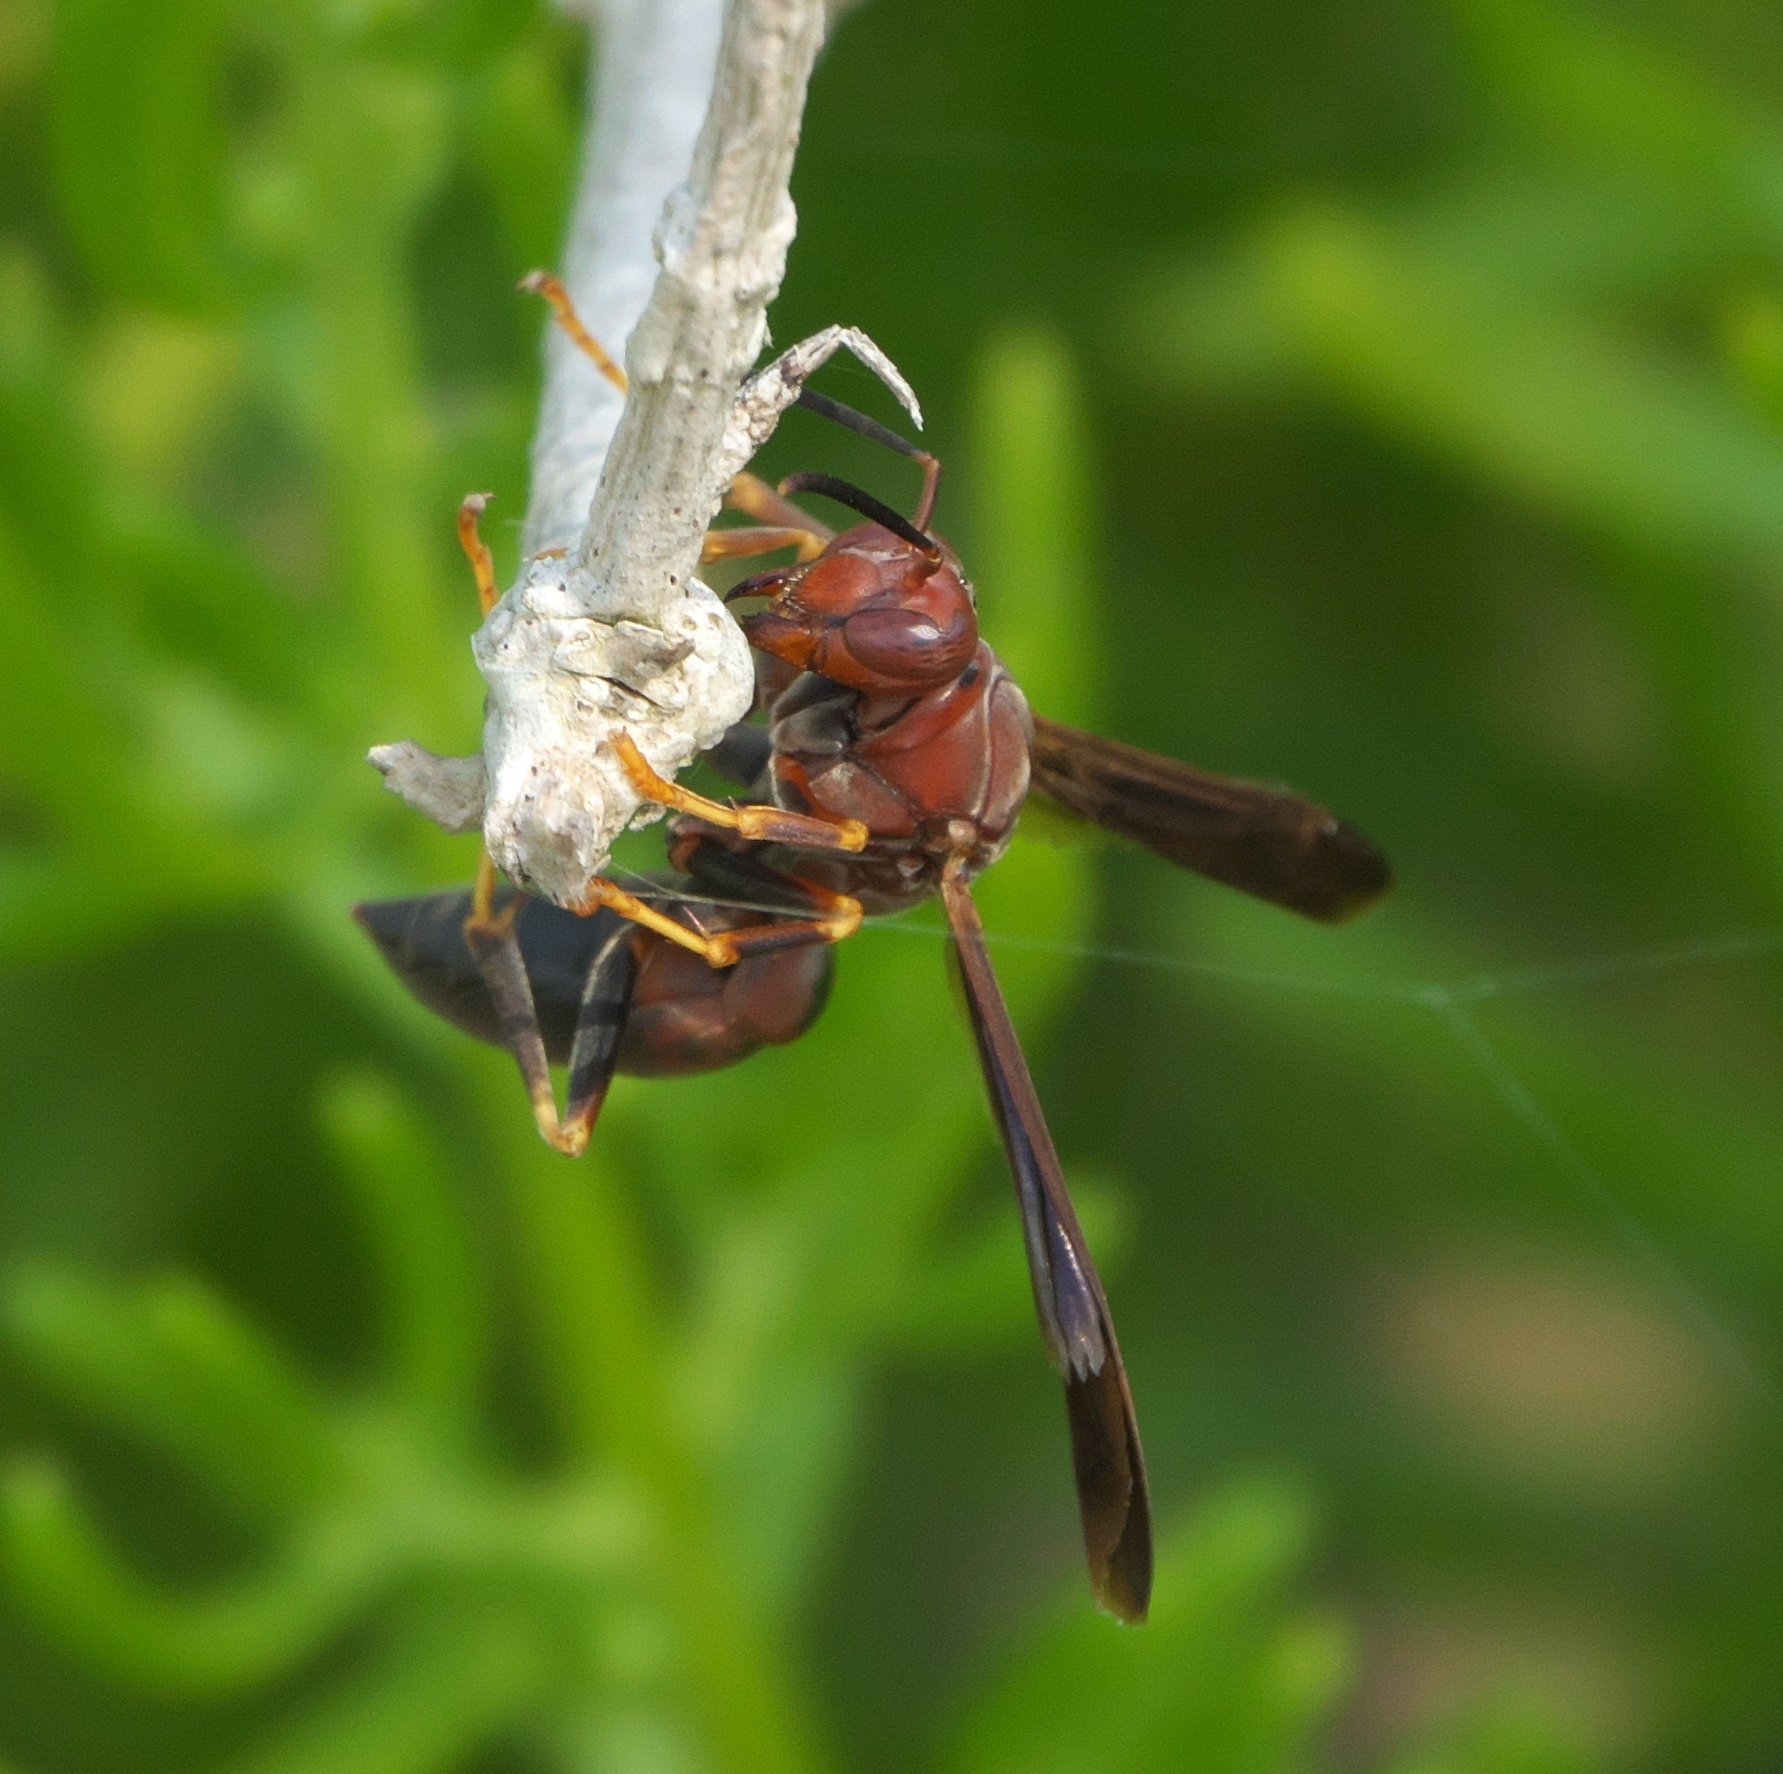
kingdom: Animalia
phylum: Arthropoda
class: Insecta
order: Hymenoptera
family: Eumenidae
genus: Polistes
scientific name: Polistes metricus
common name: Metric paper wasp
